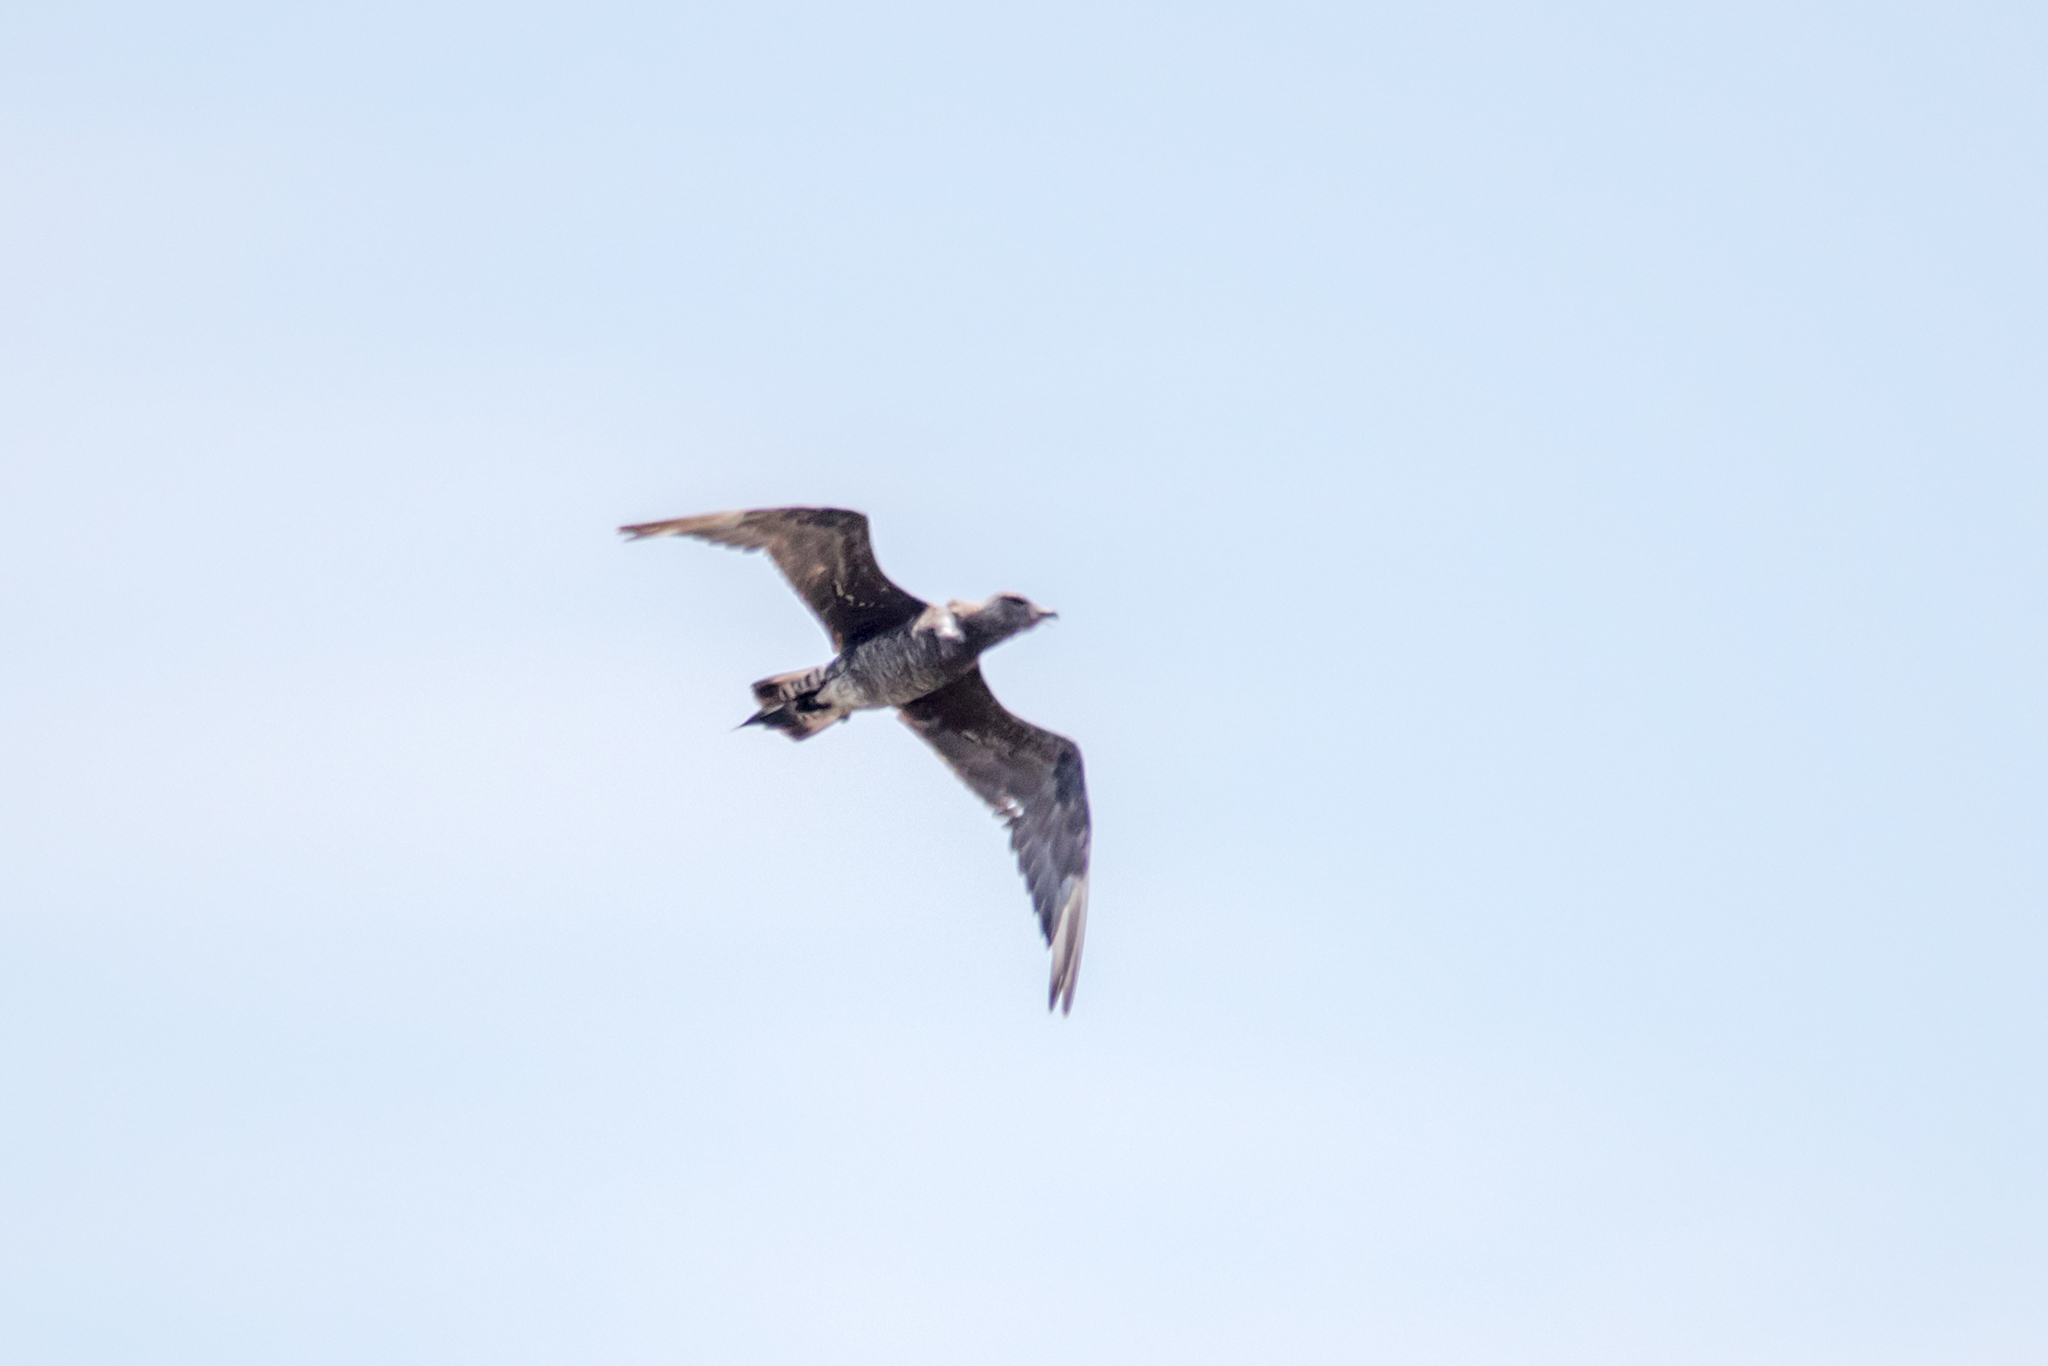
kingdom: Animalia
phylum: Chordata
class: Aves
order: Charadriiformes
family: Stercorariidae
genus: Stercorarius
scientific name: Stercorarius parasiticus
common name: Parasitic jaeger
